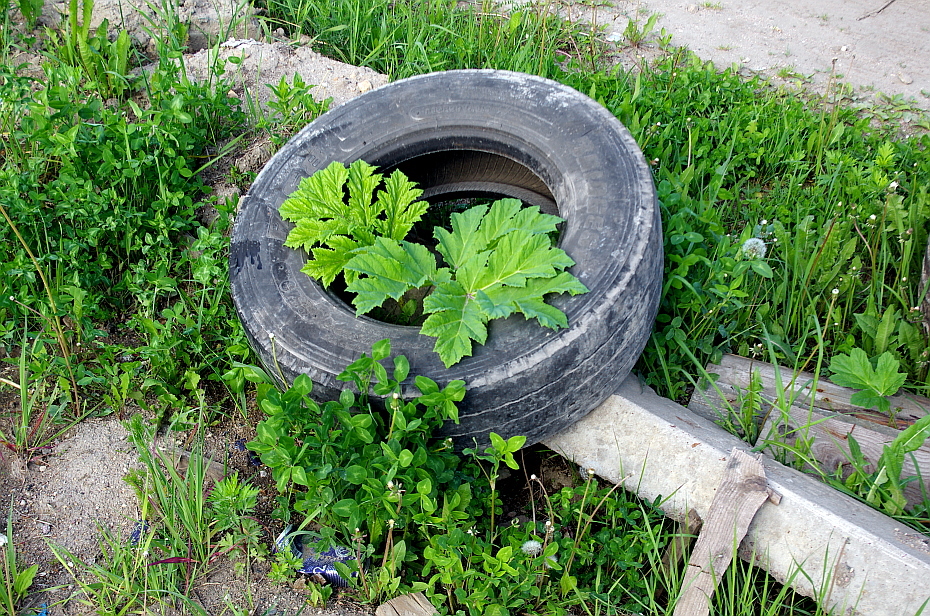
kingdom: Plantae
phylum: Tracheophyta
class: Magnoliopsida
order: Apiales
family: Apiaceae
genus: Heracleum
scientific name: Heracleum sosnowskyi
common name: Sosnowsky's hogweed
